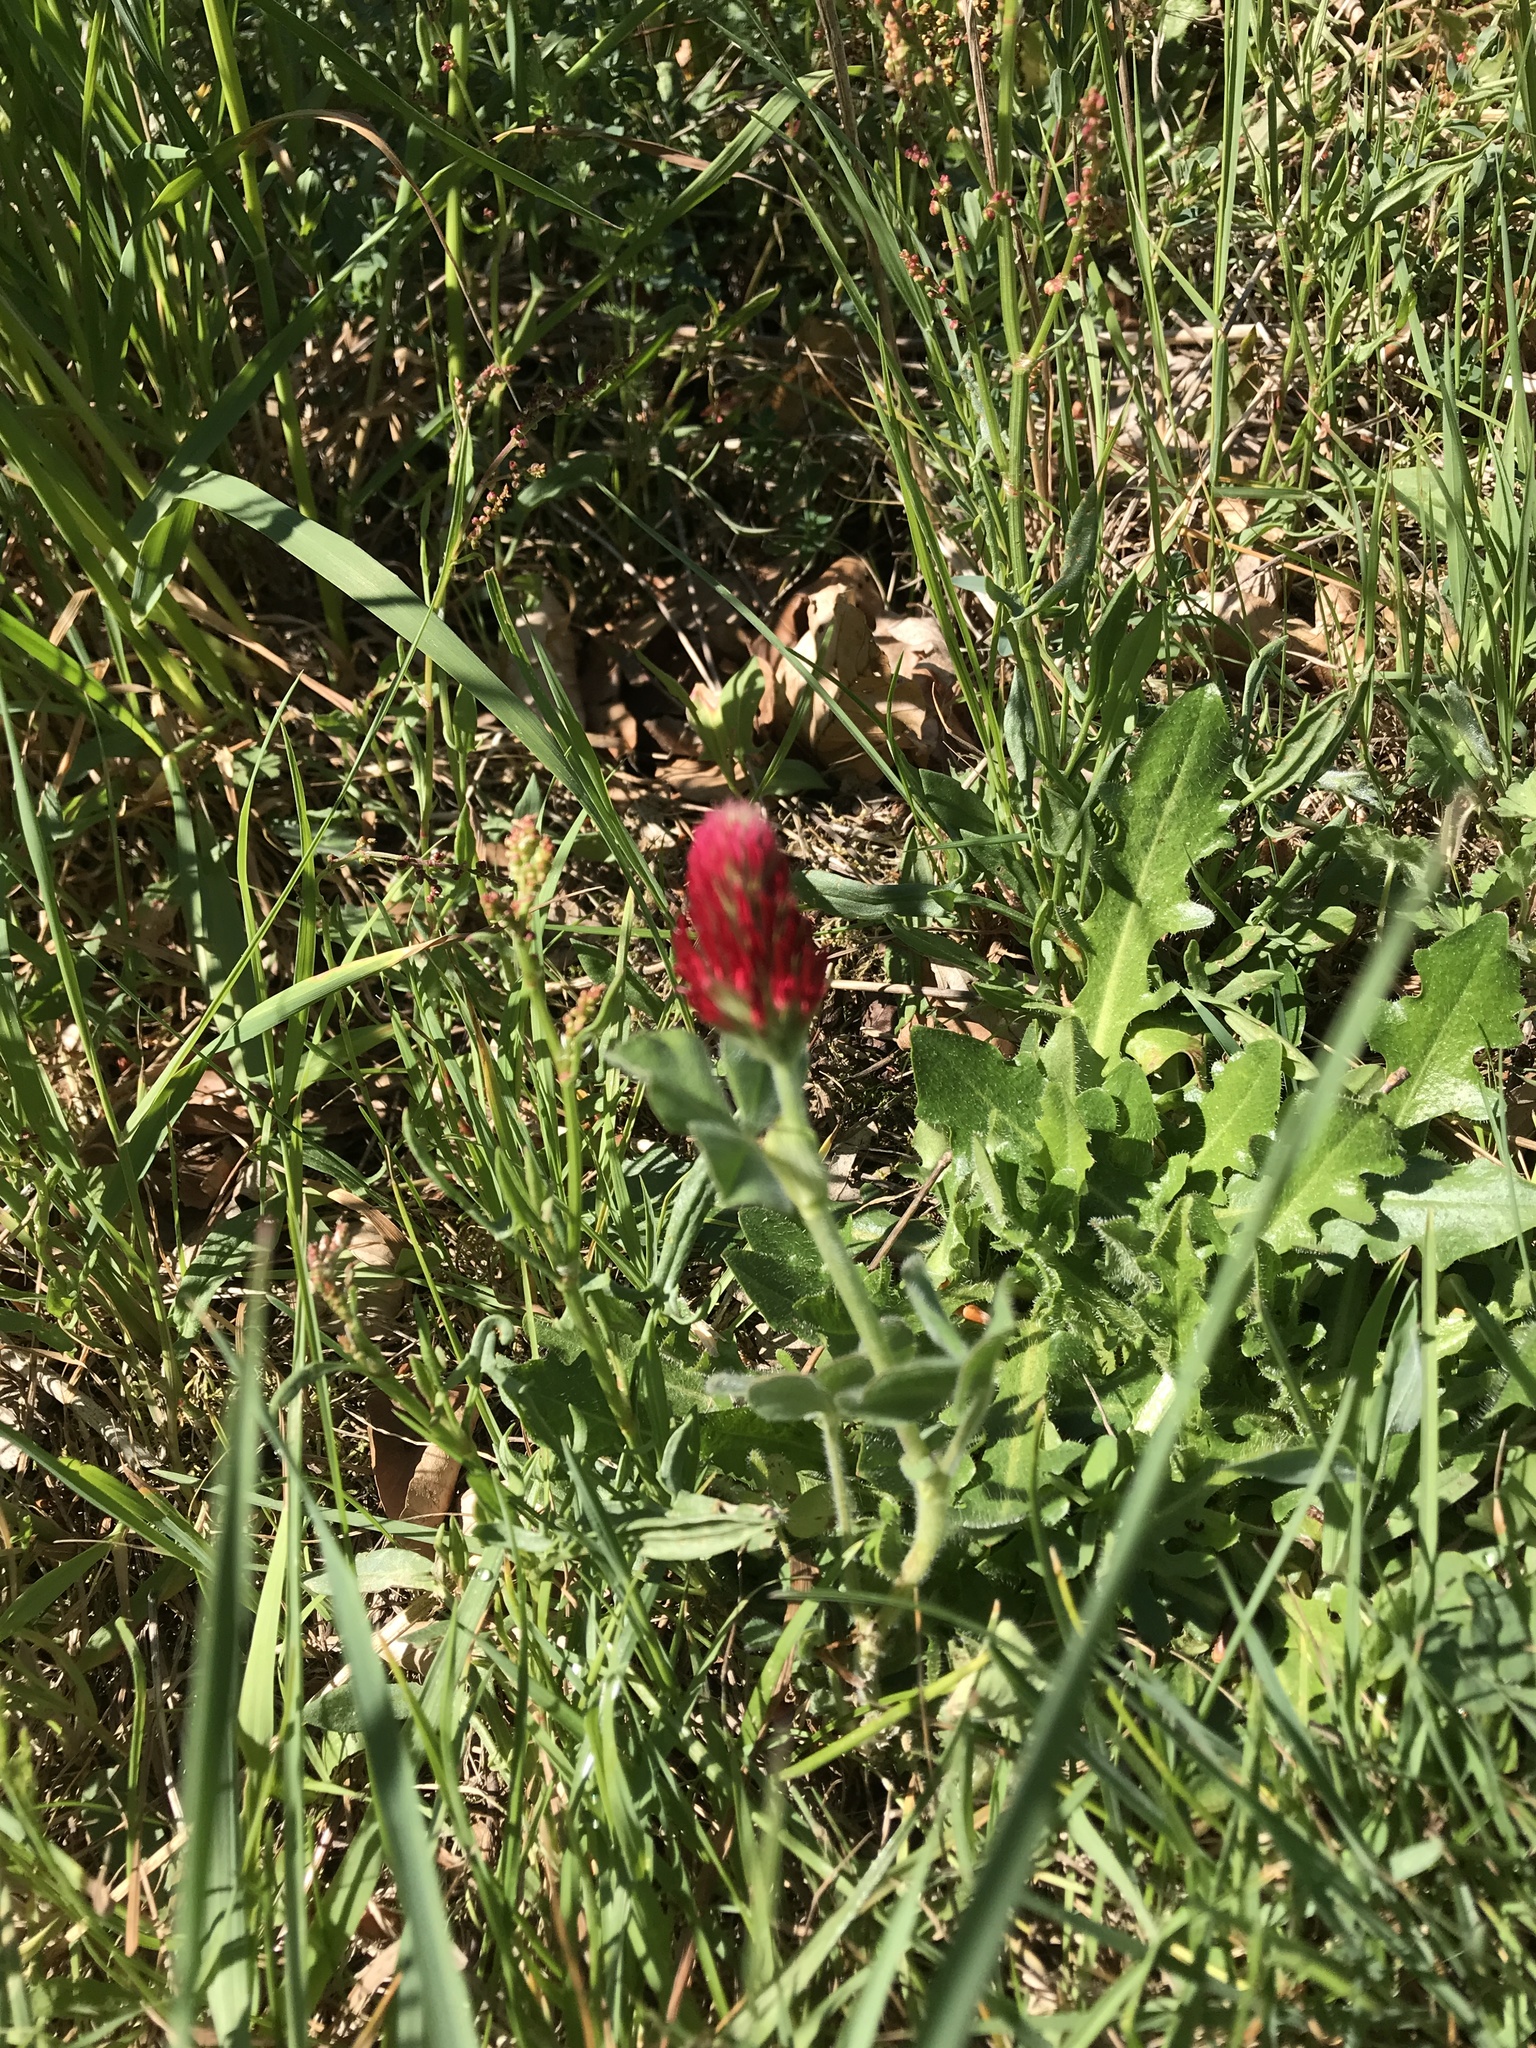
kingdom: Plantae
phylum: Tracheophyta
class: Magnoliopsida
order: Fabales
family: Fabaceae
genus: Trifolium
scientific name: Trifolium incarnatum
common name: Crimson clover
